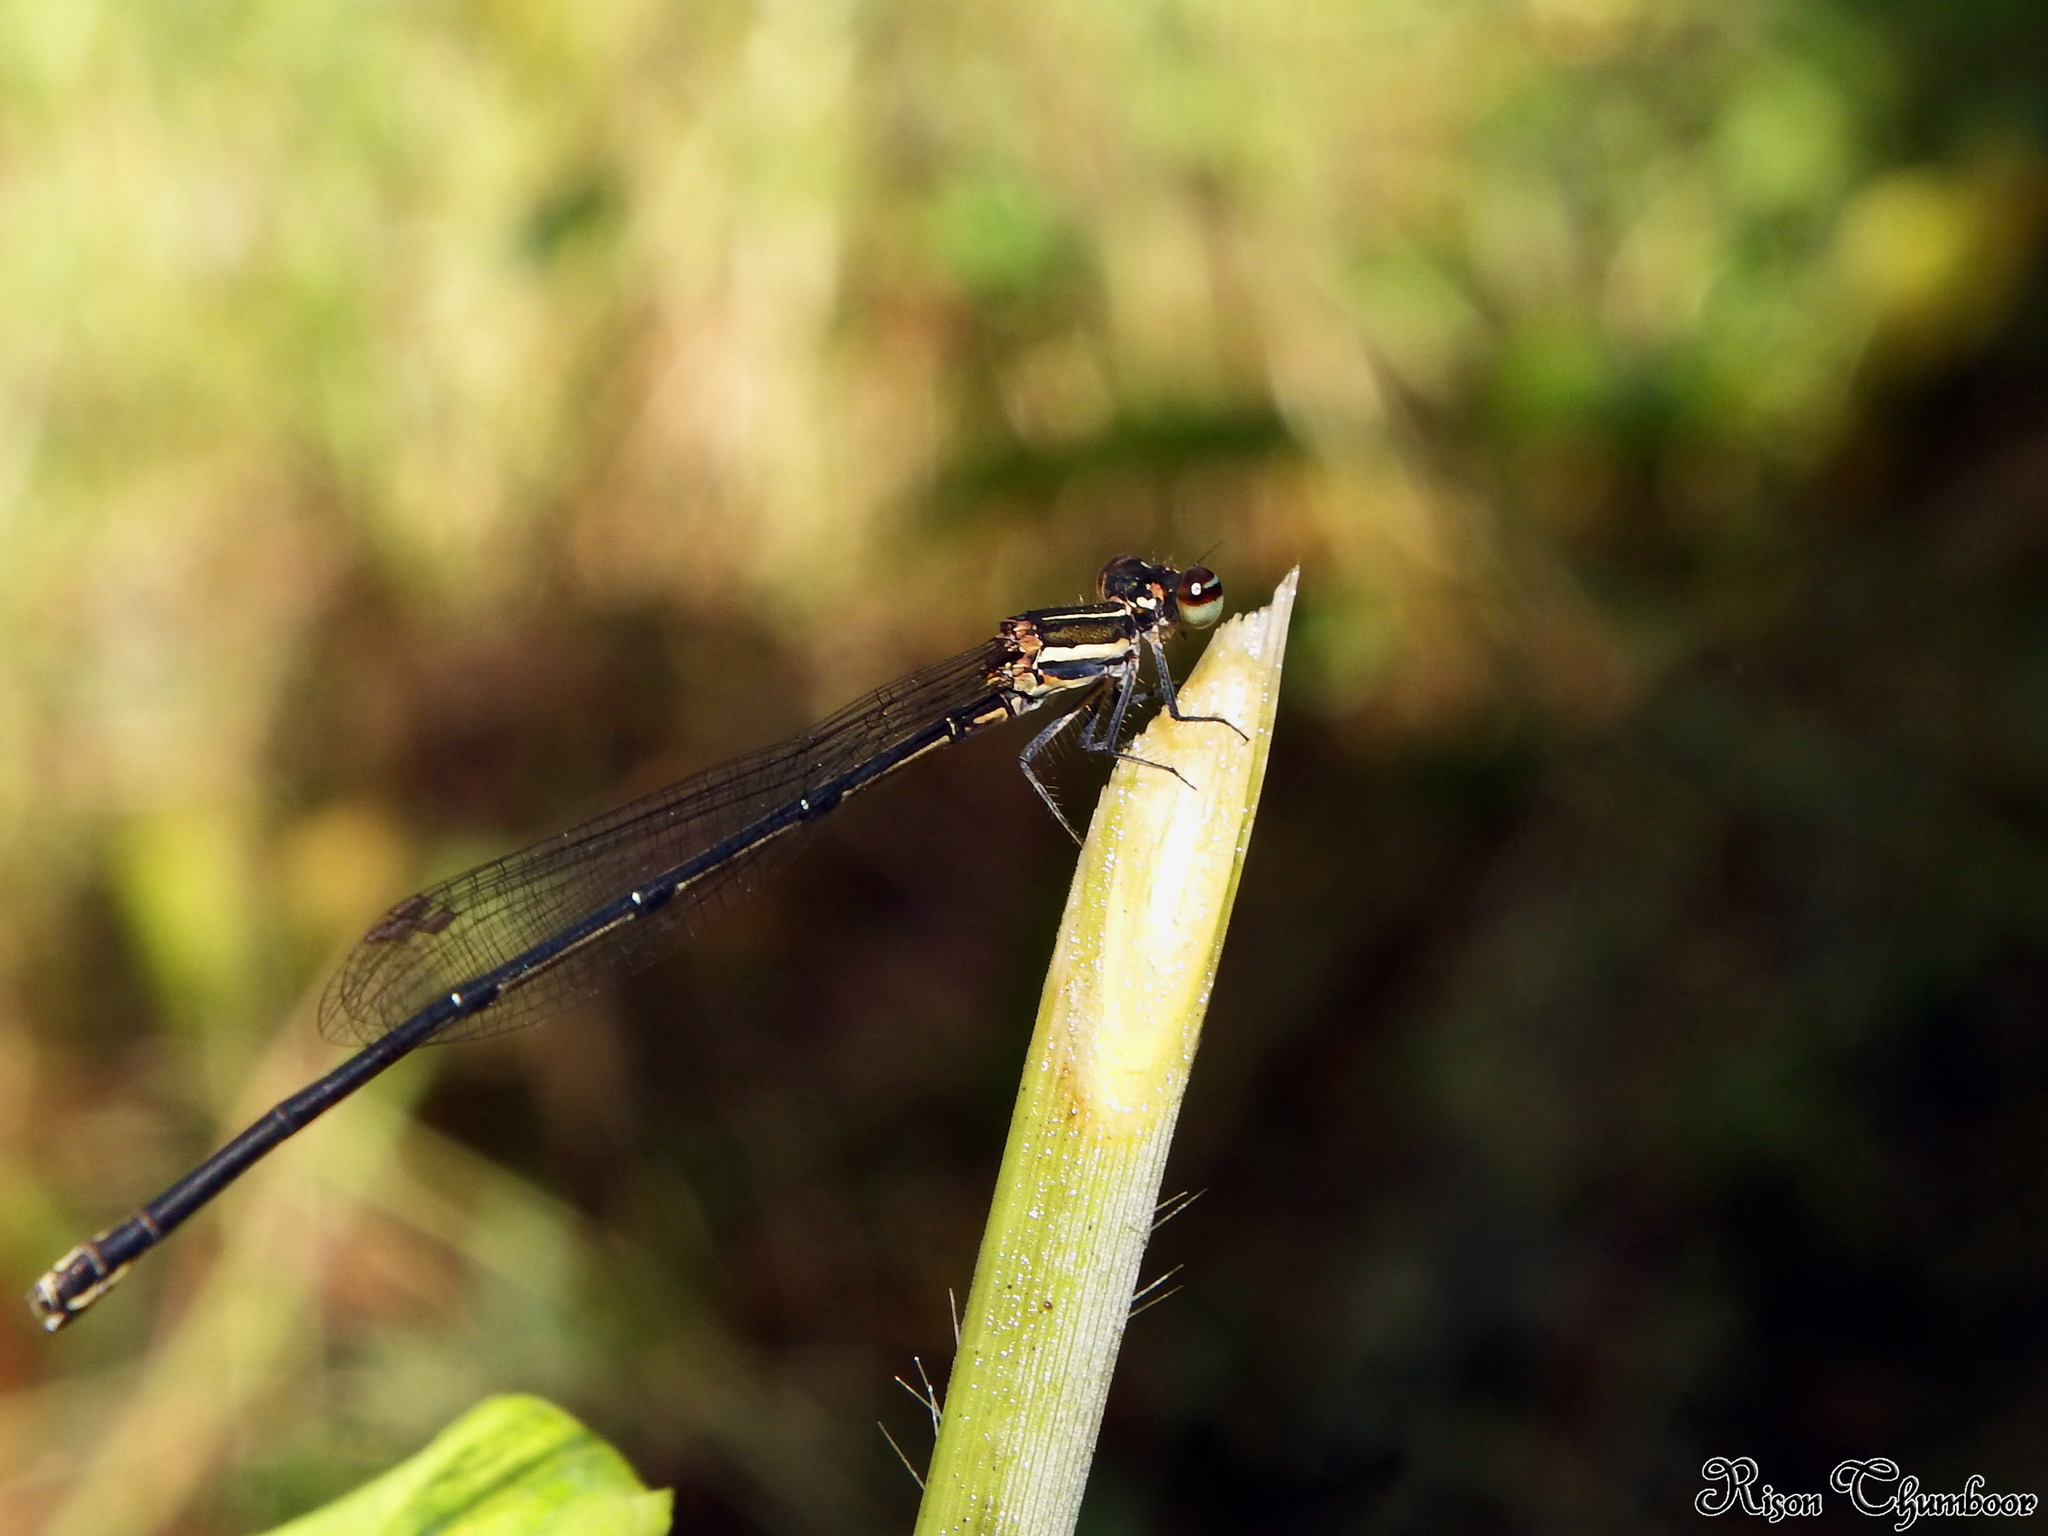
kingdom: Animalia
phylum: Arthropoda
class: Insecta
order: Odonata
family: Platycnemididae
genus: Prodasineura
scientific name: Prodasineura verticalis
